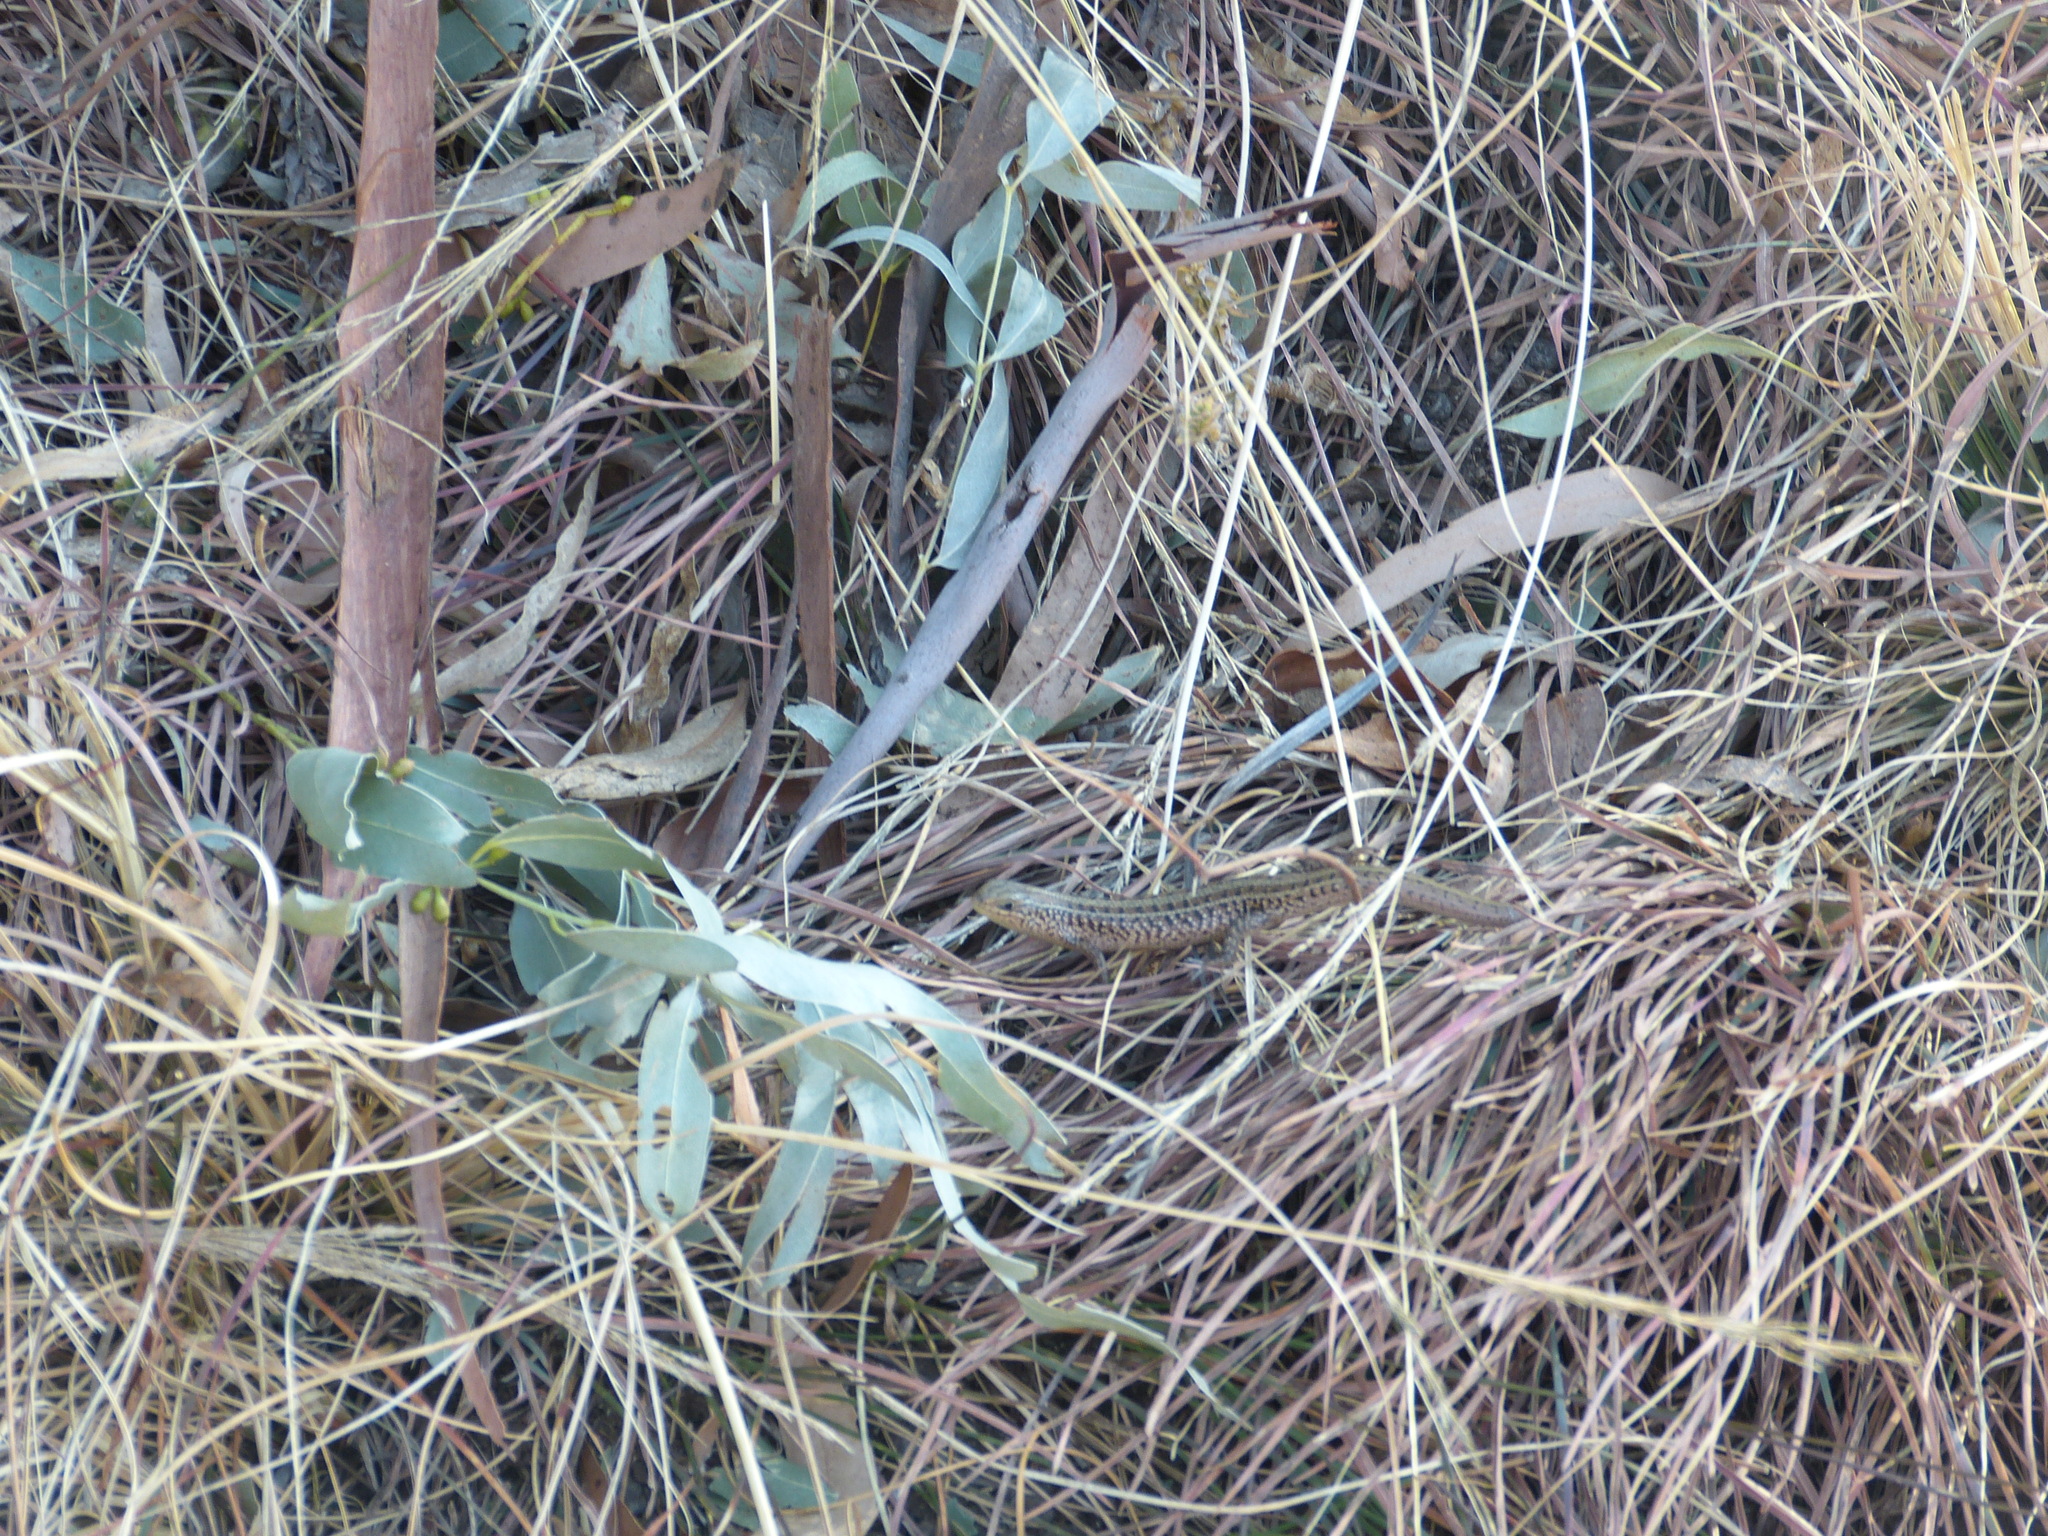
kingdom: Animalia
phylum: Chordata
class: Squamata
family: Scincidae
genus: Trachylepis
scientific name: Trachylepis capensis
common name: Cape skink
